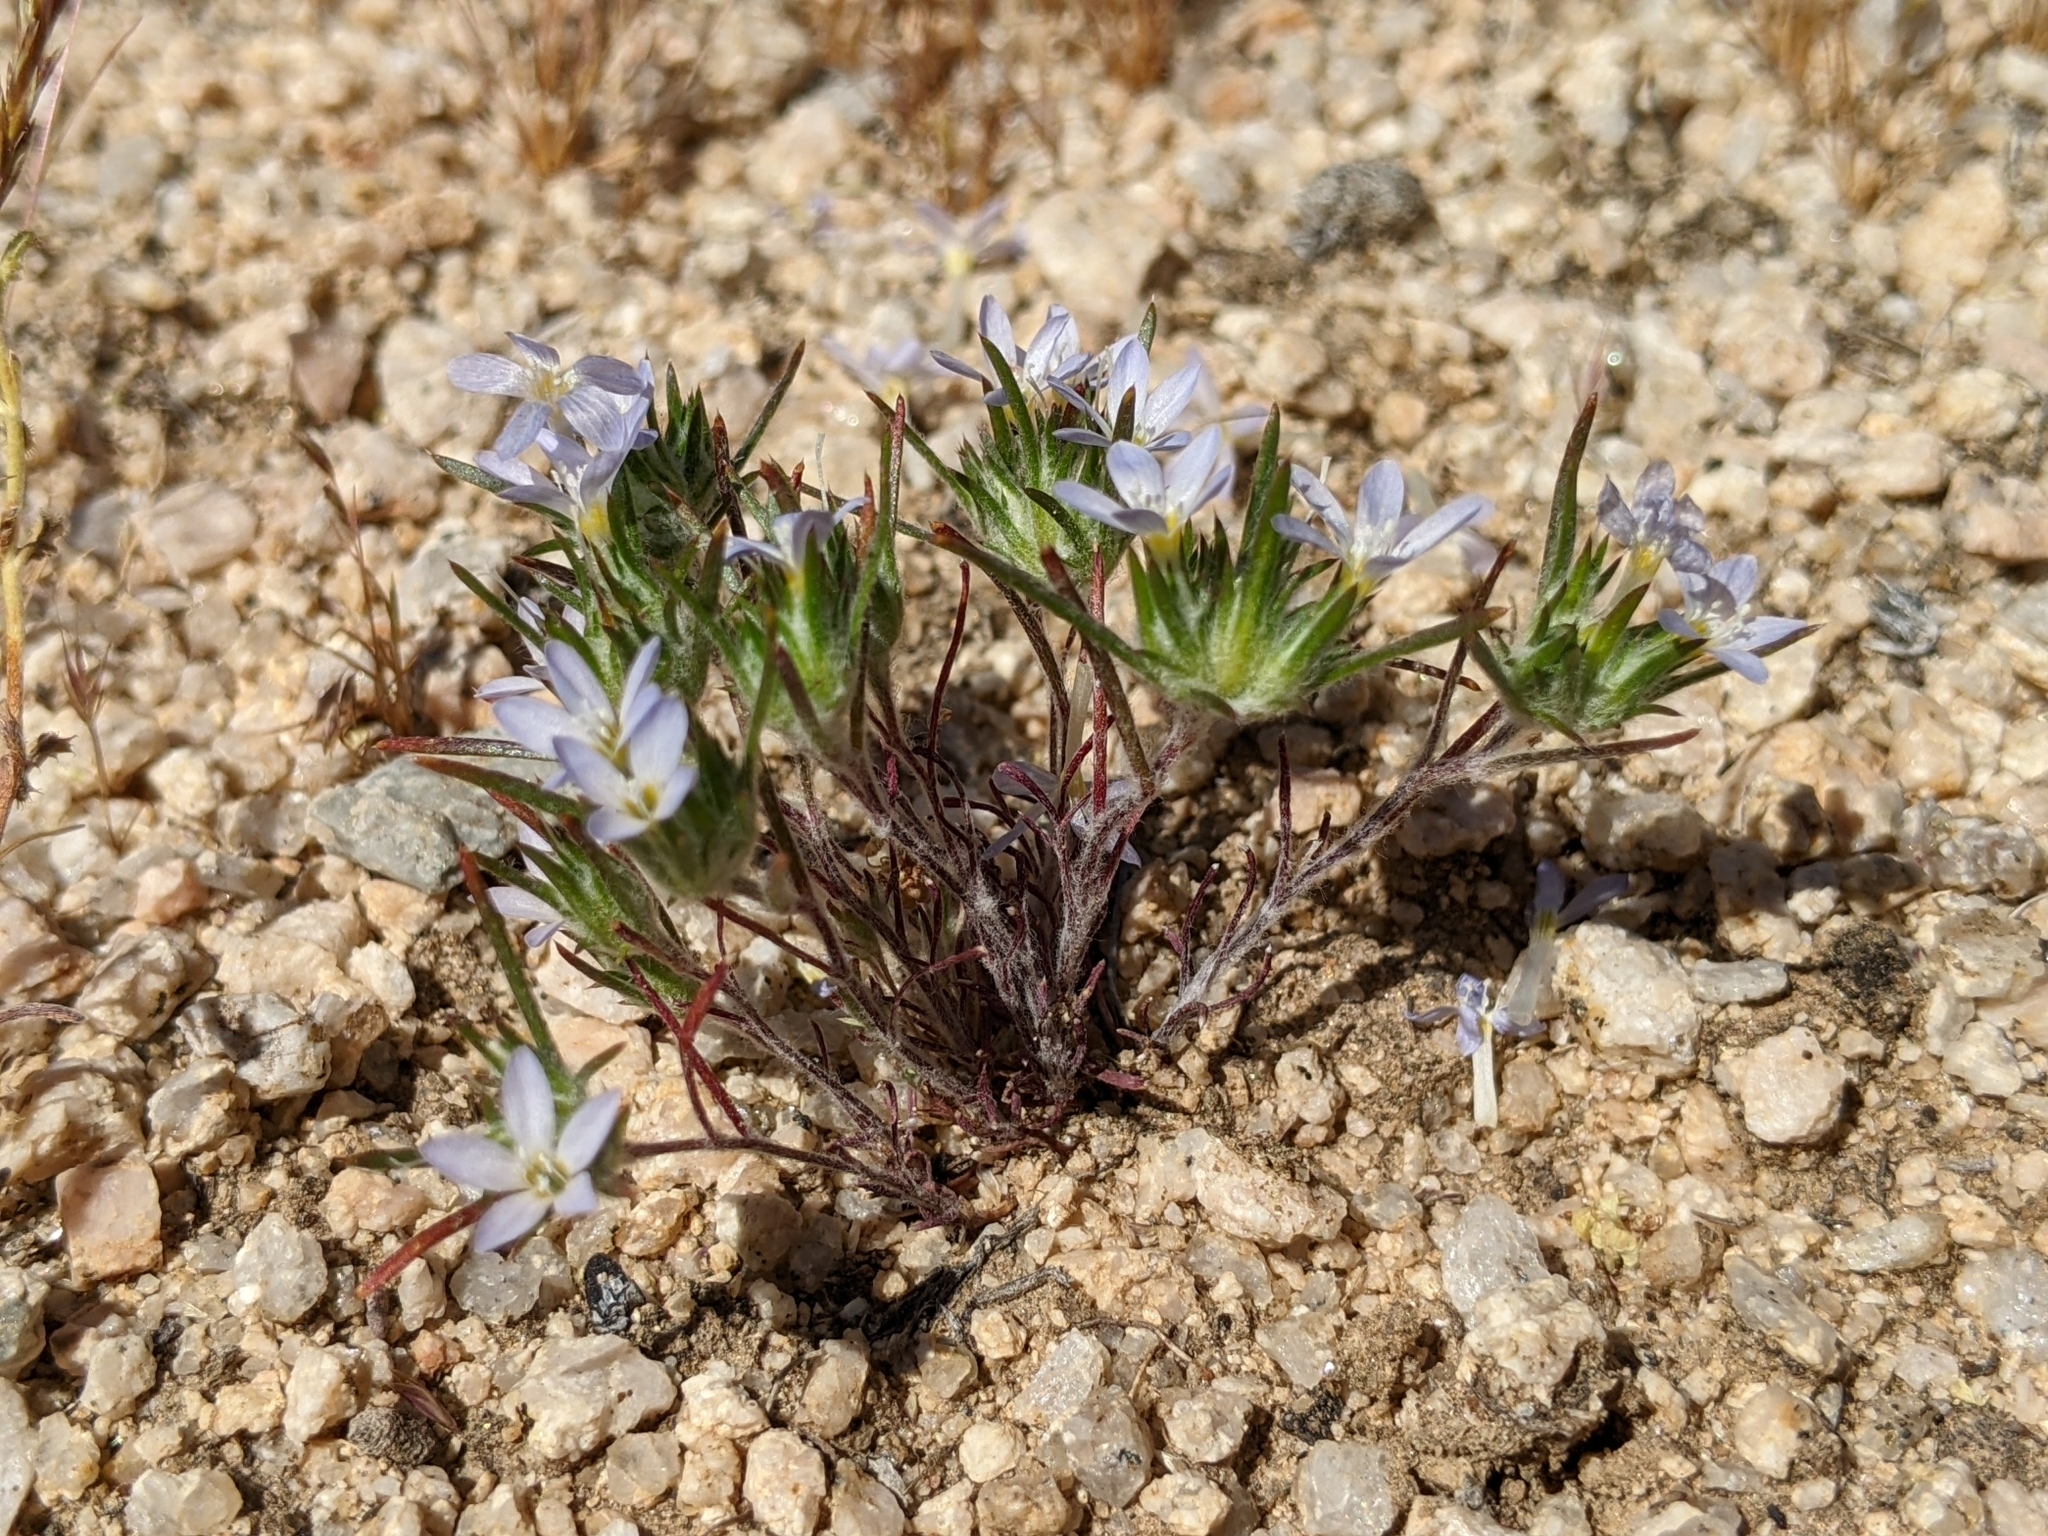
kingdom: Plantae
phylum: Tracheophyta
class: Magnoliopsida
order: Ericales
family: Polemoniaceae
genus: Eriastrum
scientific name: Eriastrum diffusum
